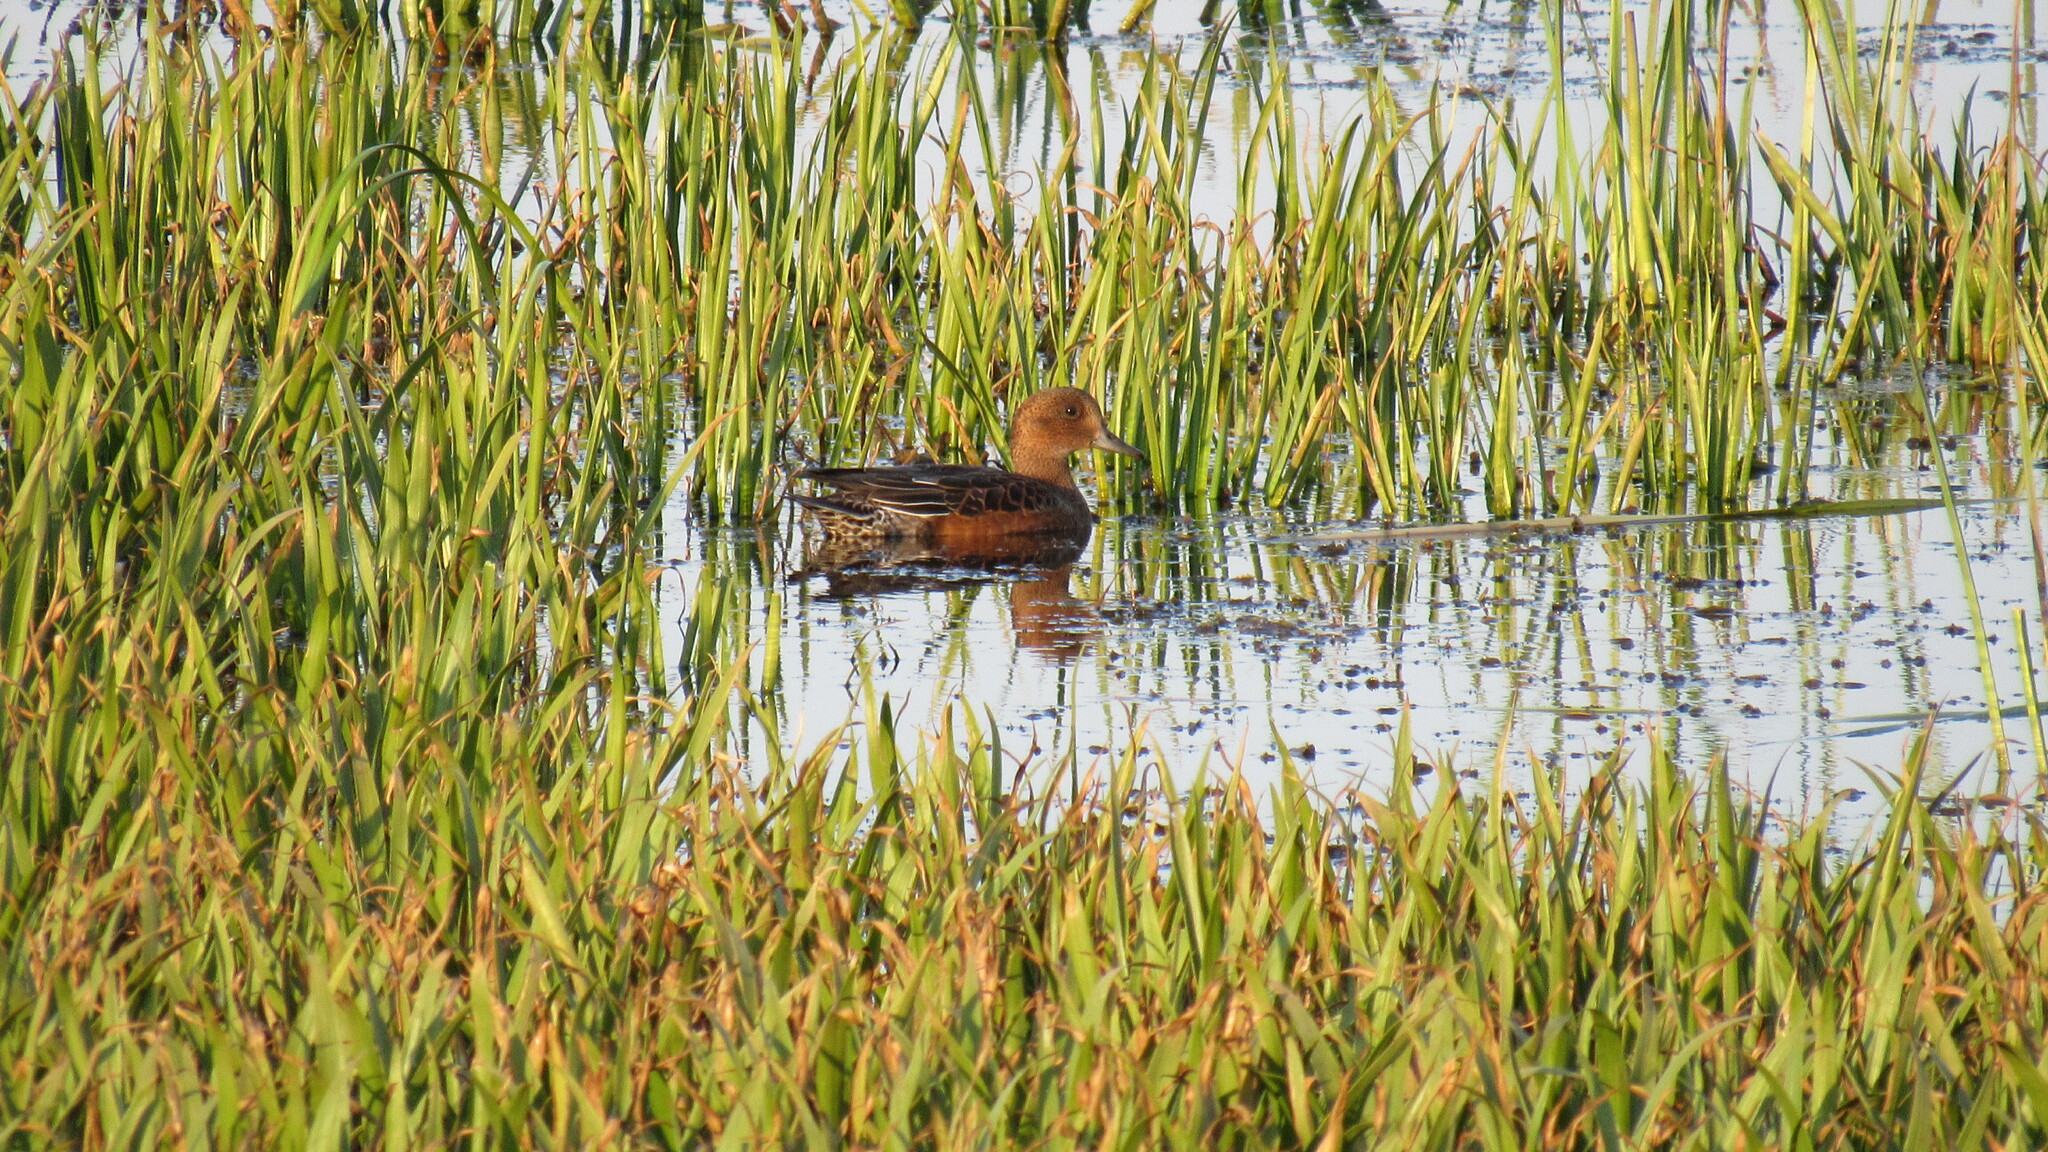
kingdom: Animalia
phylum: Chordata
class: Aves
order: Anseriformes
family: Anatidae
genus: Mareca
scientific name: Mareca penelope
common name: Eurasian wigeon
